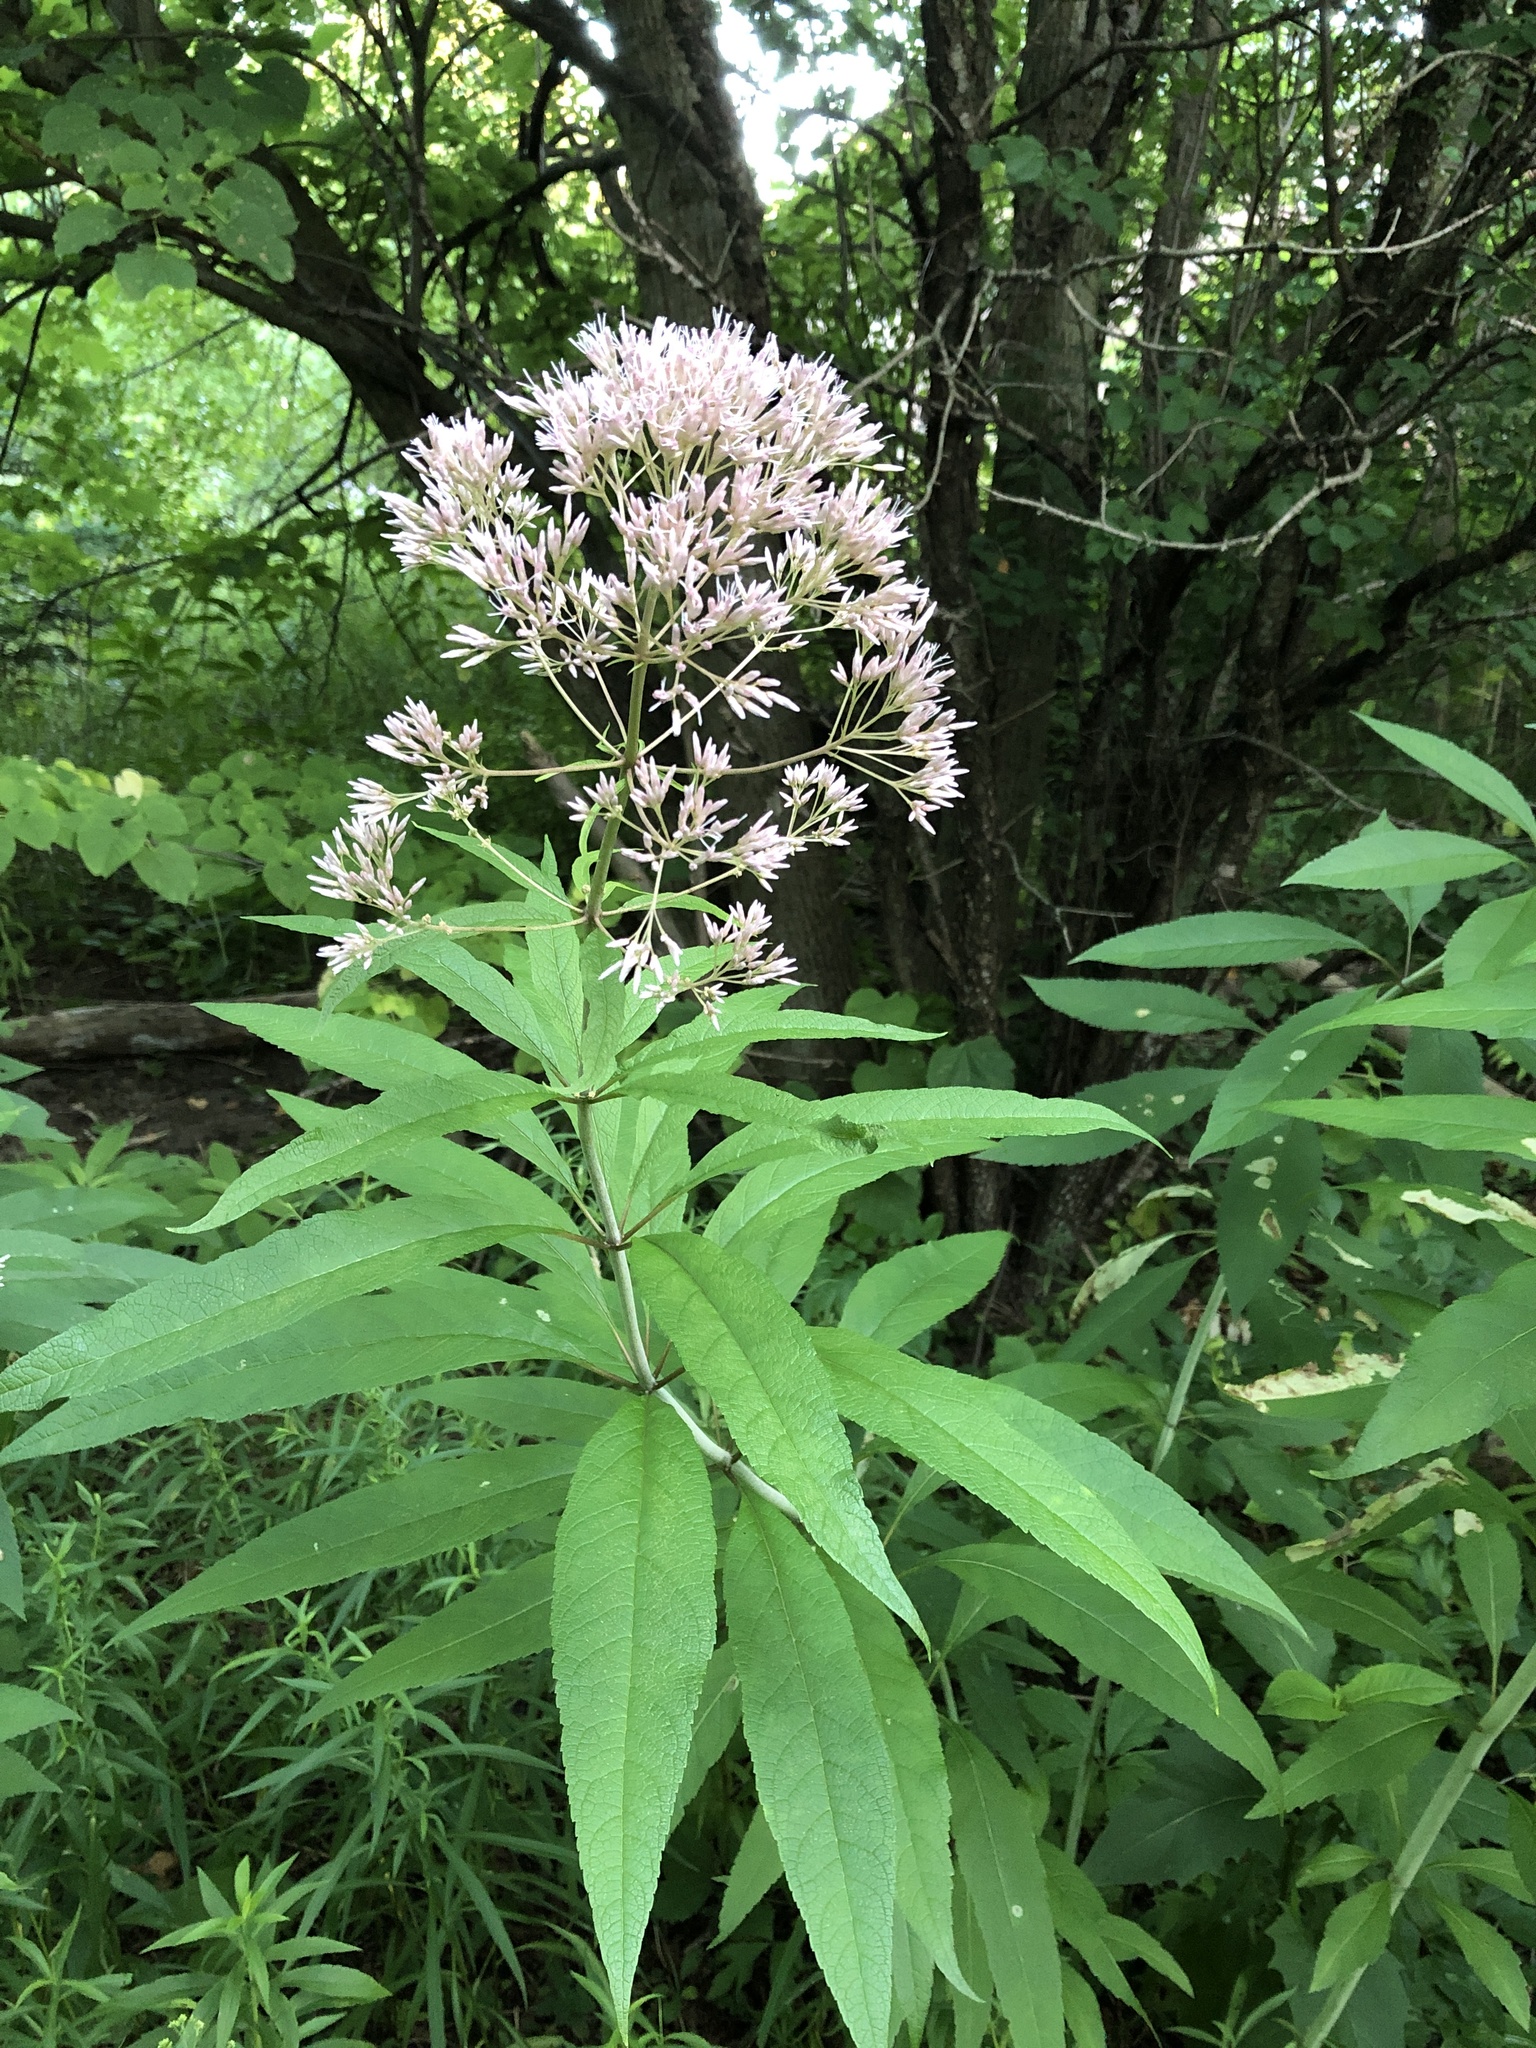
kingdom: Plantae
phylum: Tracheophyta
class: Magnoliopsida
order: Asterales
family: Asteraceae
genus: Eutrochium
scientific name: Eutrochium fistulosum
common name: Trumpetweed
